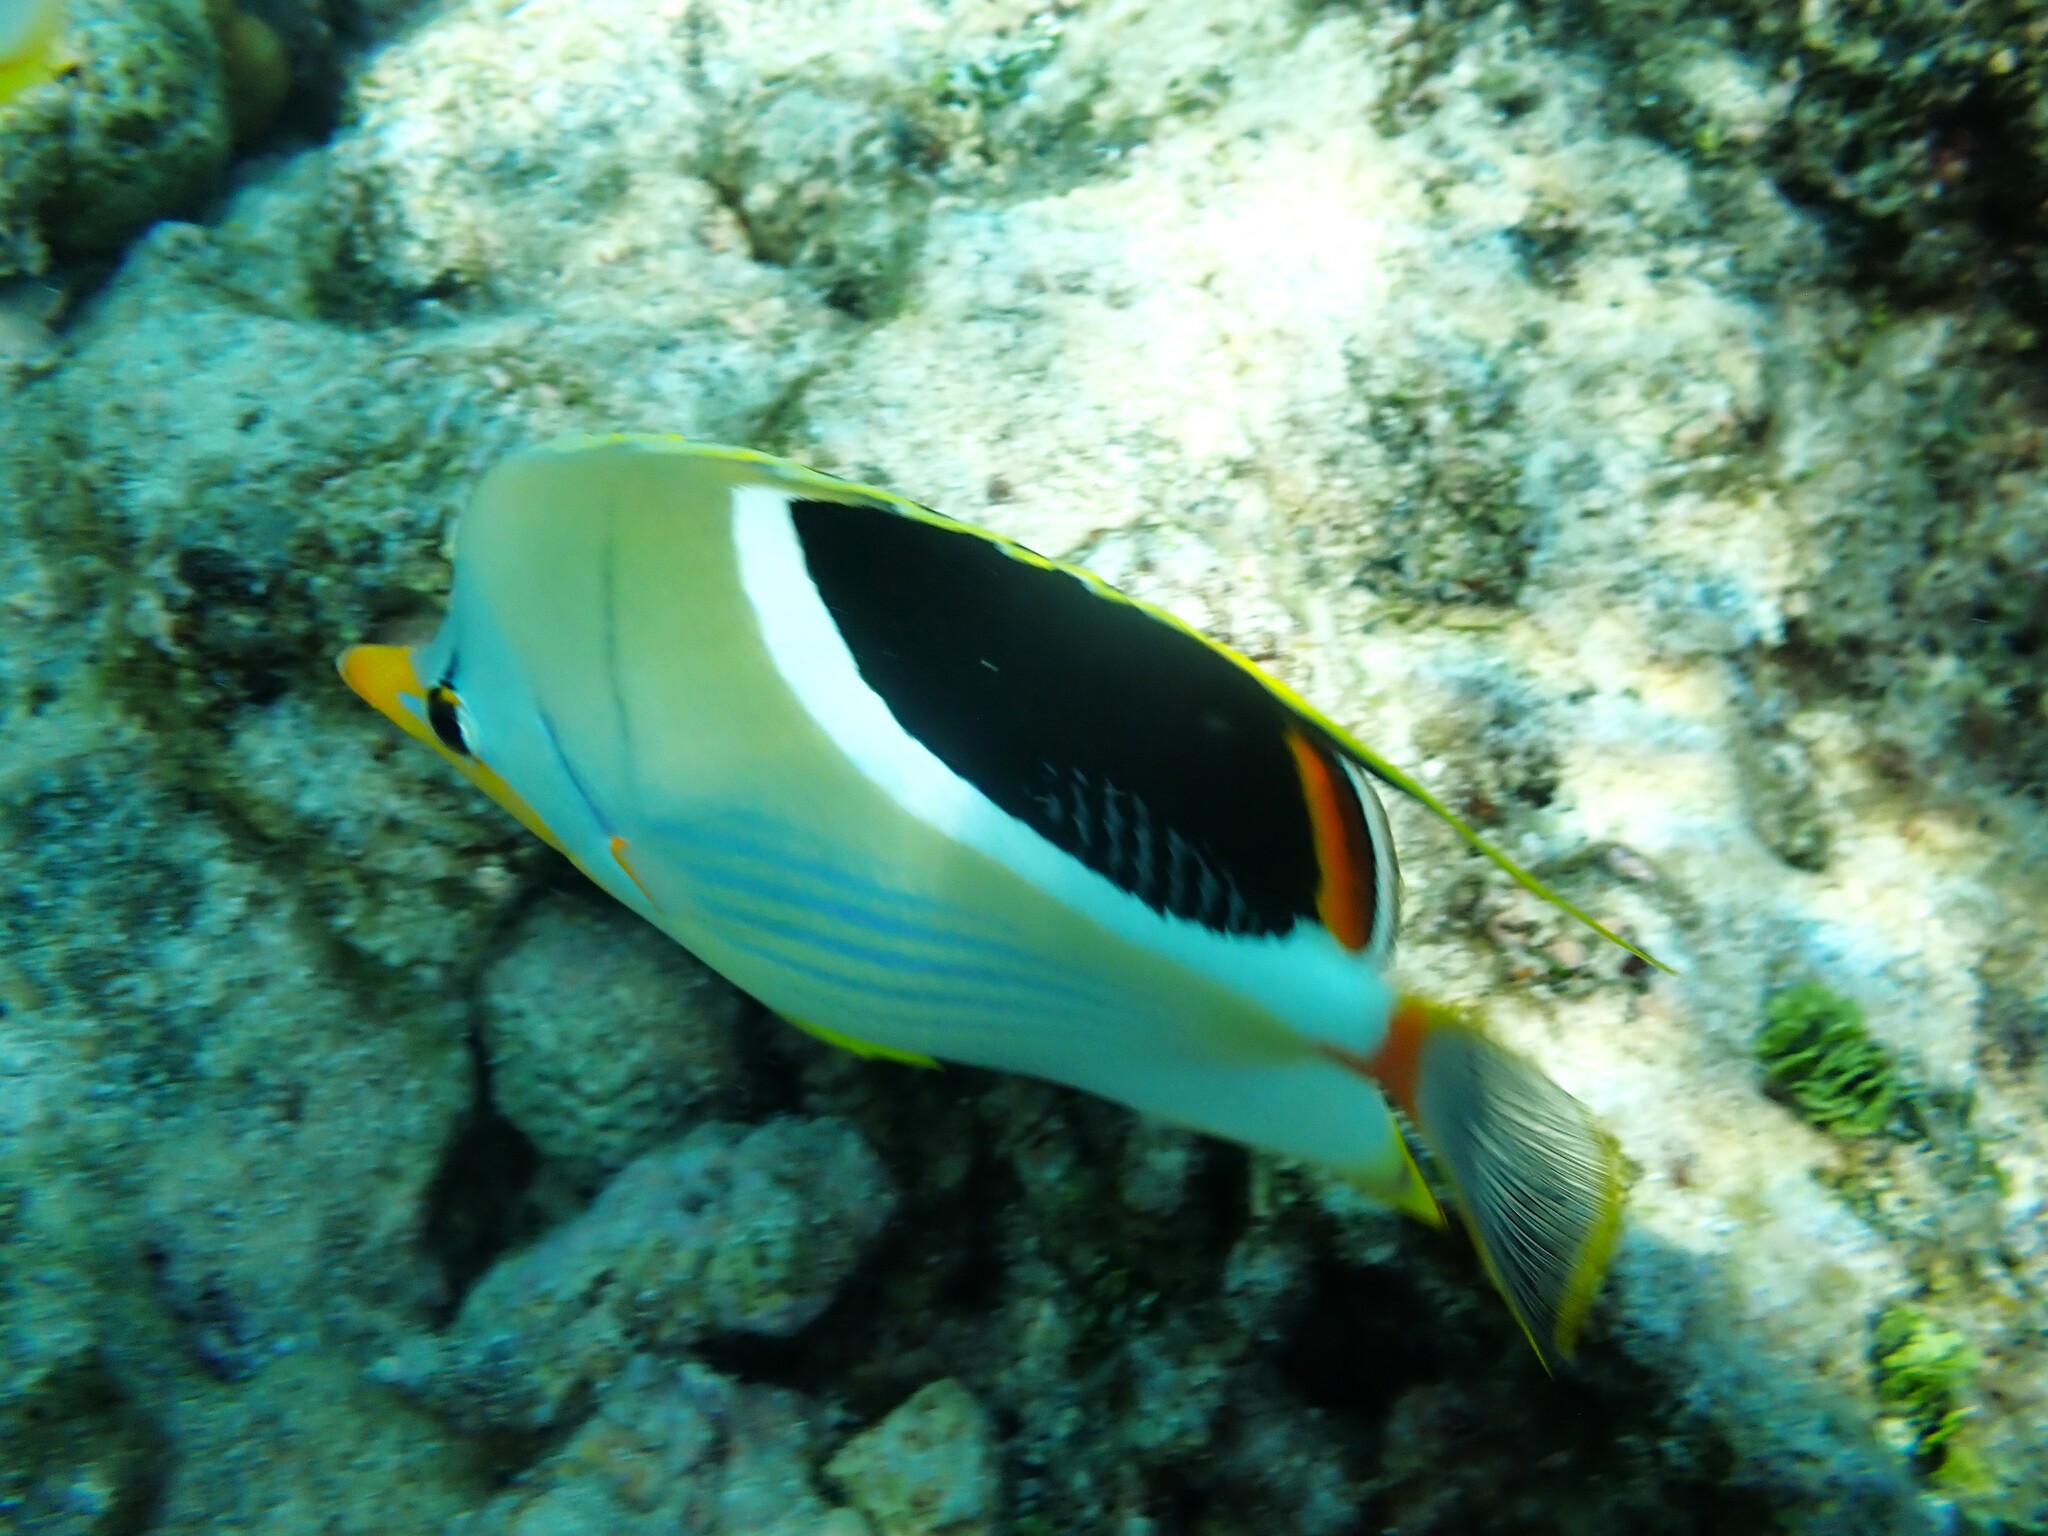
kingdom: Animalia
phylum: Chordata
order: Perciformes
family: Chaetodontidae
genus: Chaetodon
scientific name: Chaetodon ephippium
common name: Saddled butterflyfish
